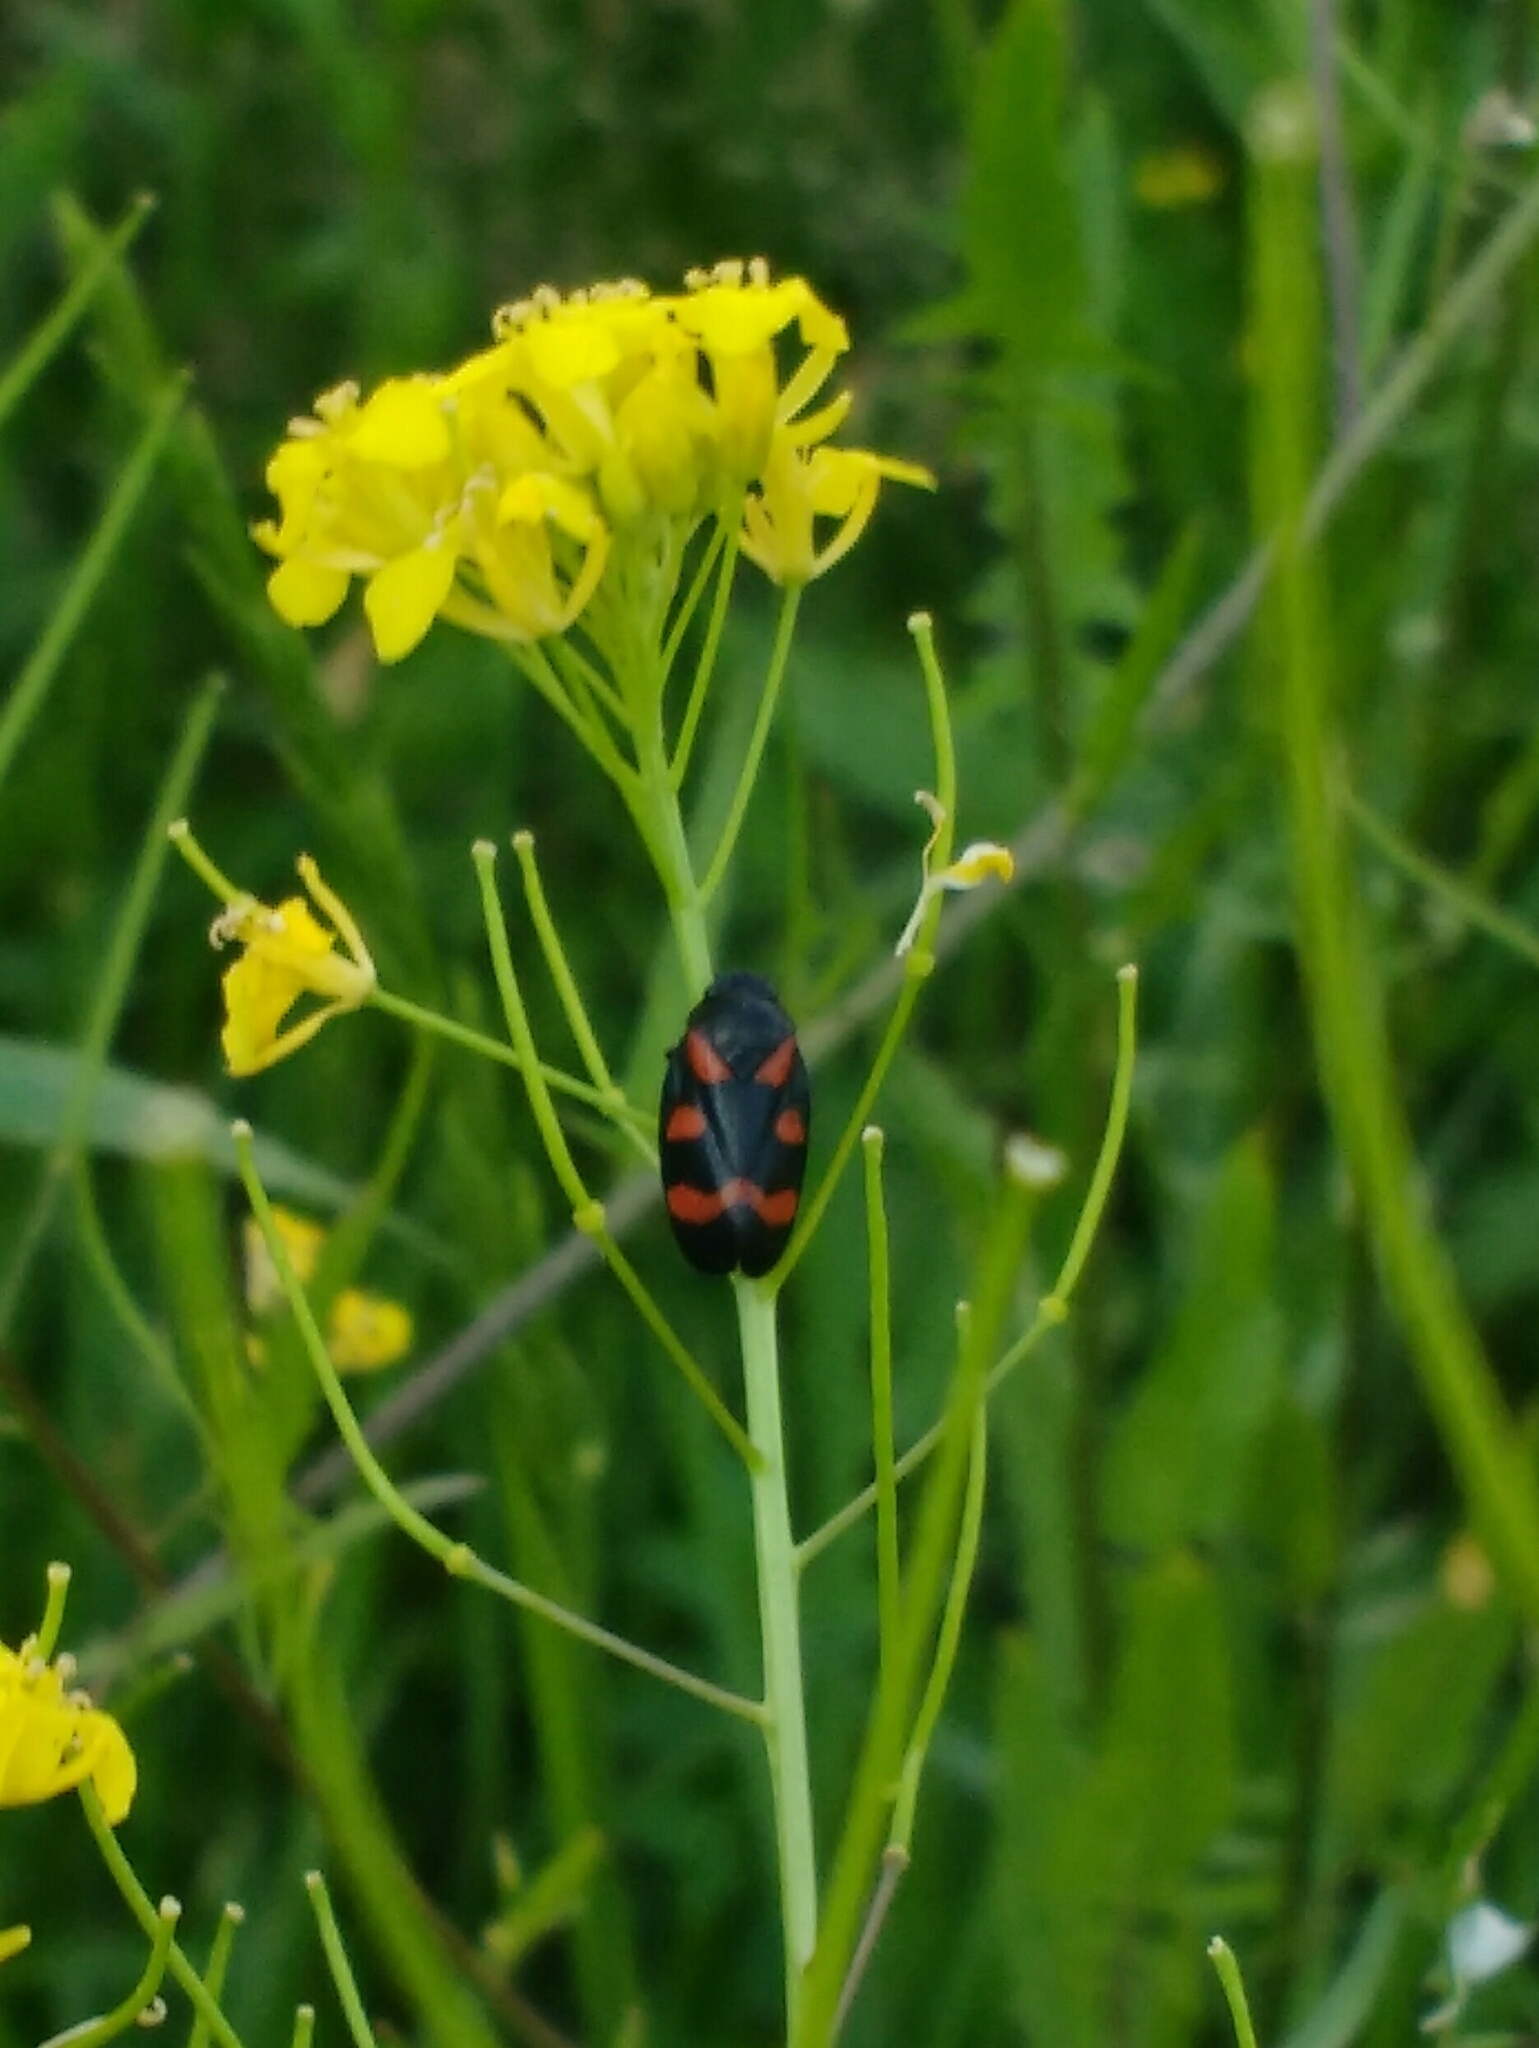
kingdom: Animalia
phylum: Arthropoda
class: Insecta
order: Hemiptera
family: Cercopidae
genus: Cercopis
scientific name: Cercopis arcuata
